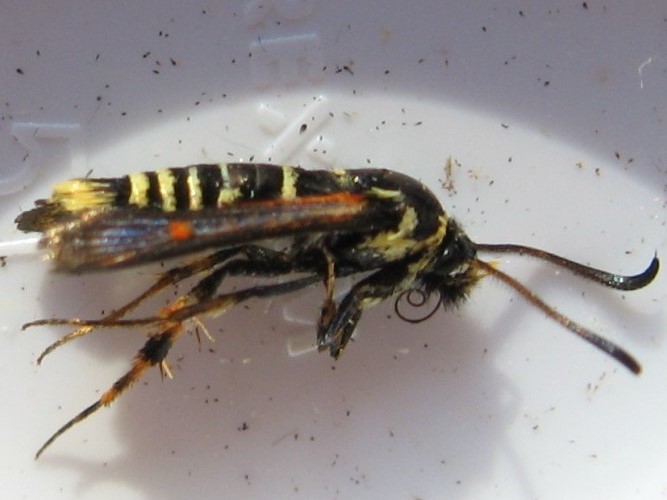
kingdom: Animalia
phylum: Arthropoda
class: Insecta
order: Lepidoptera
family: Sesiidae
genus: Carmenta
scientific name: Carmenta mimuli
